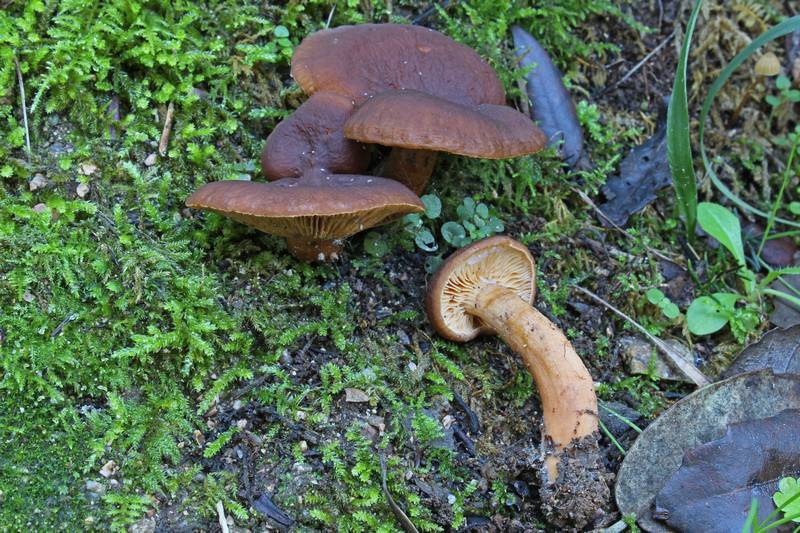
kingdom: Fungi
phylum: Basidiomycota
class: Agaricomycetes
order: Russulales
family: Russulaceae
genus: Lactarius
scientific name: Lactarius serifluus
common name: Watery milk-cap
